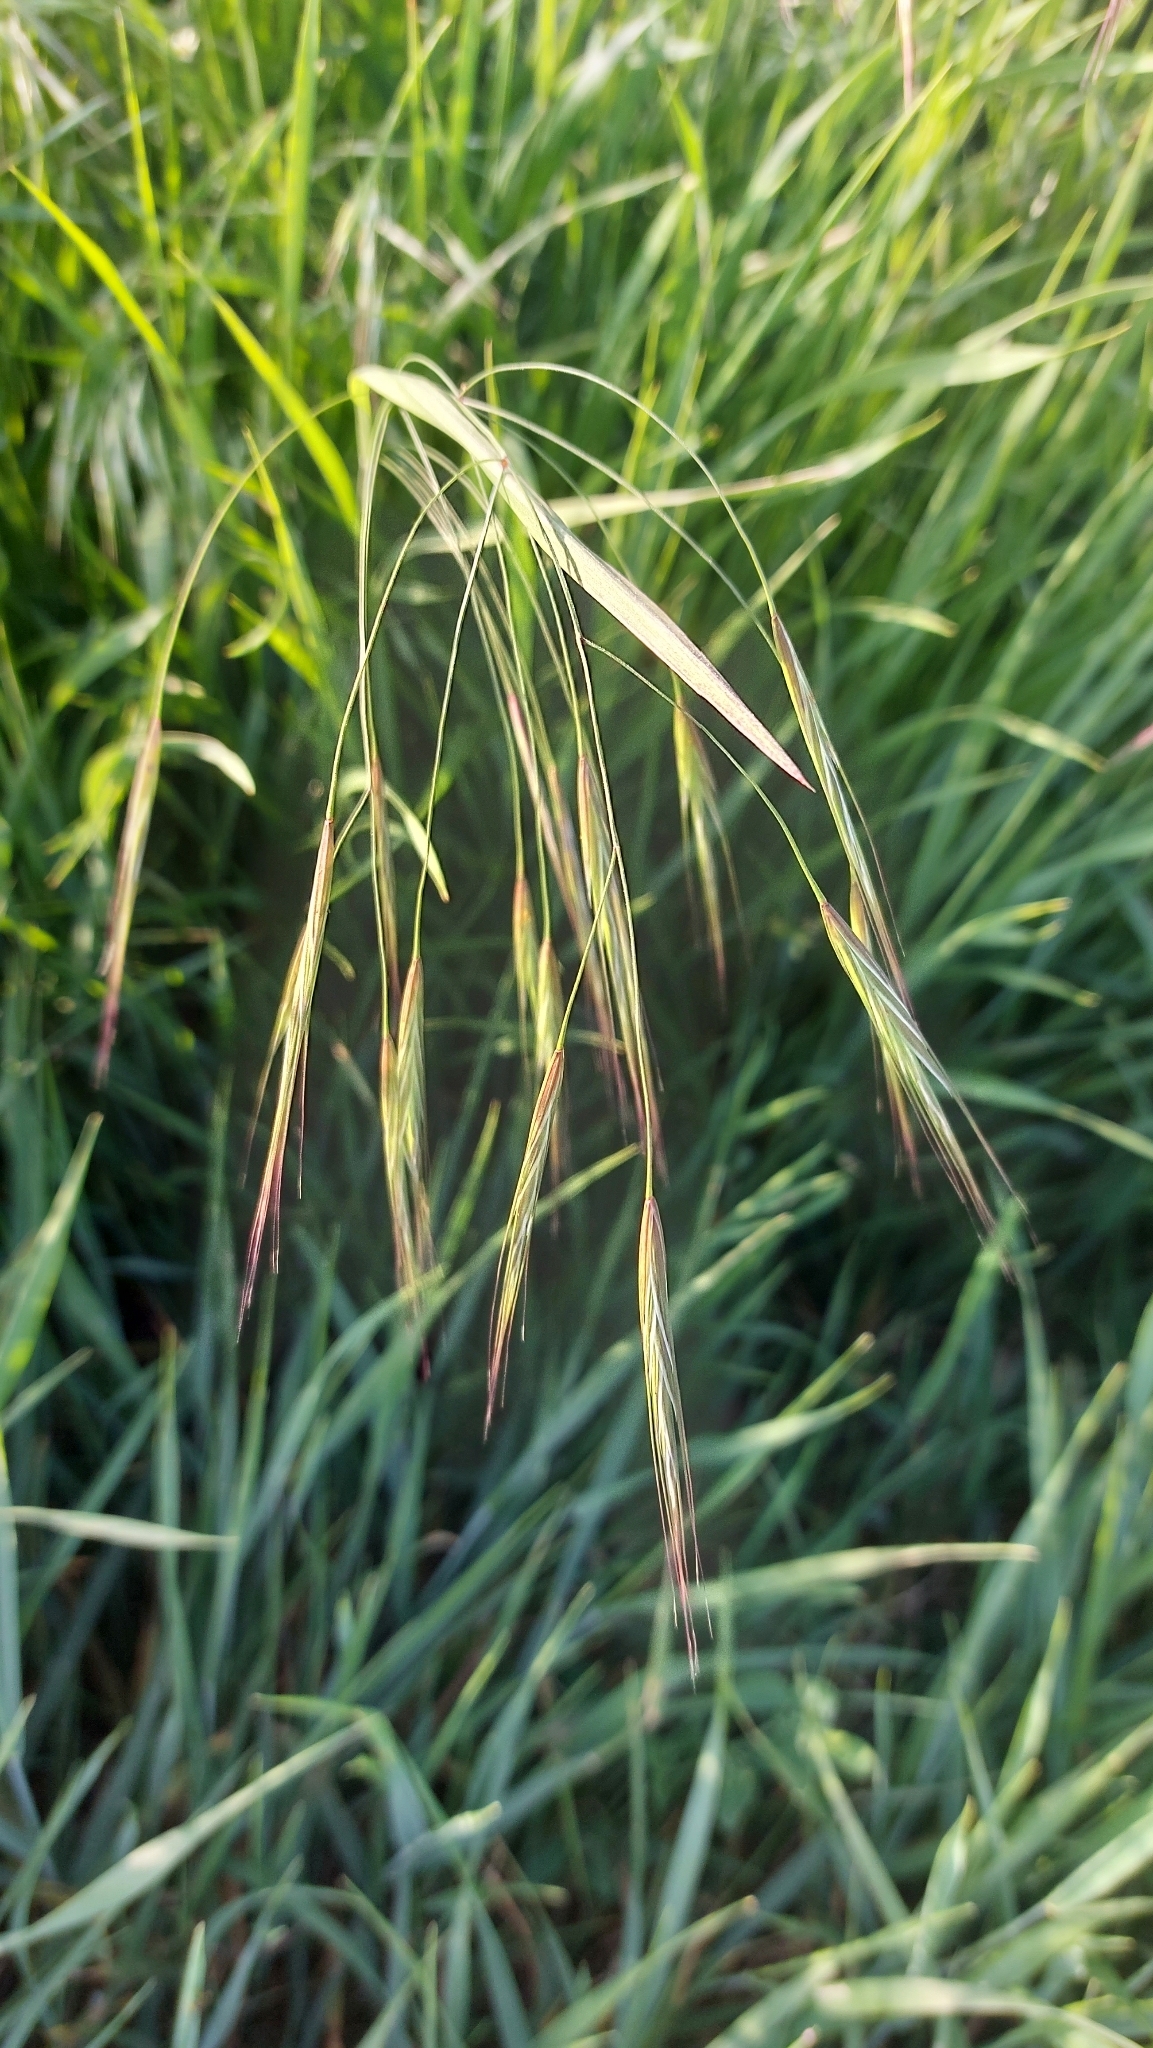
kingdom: Plantae
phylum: Tracheophyta
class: Liliopsida
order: Poales
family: Poaceae
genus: Bromus
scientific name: Bromus sterilis
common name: Poverty brome
